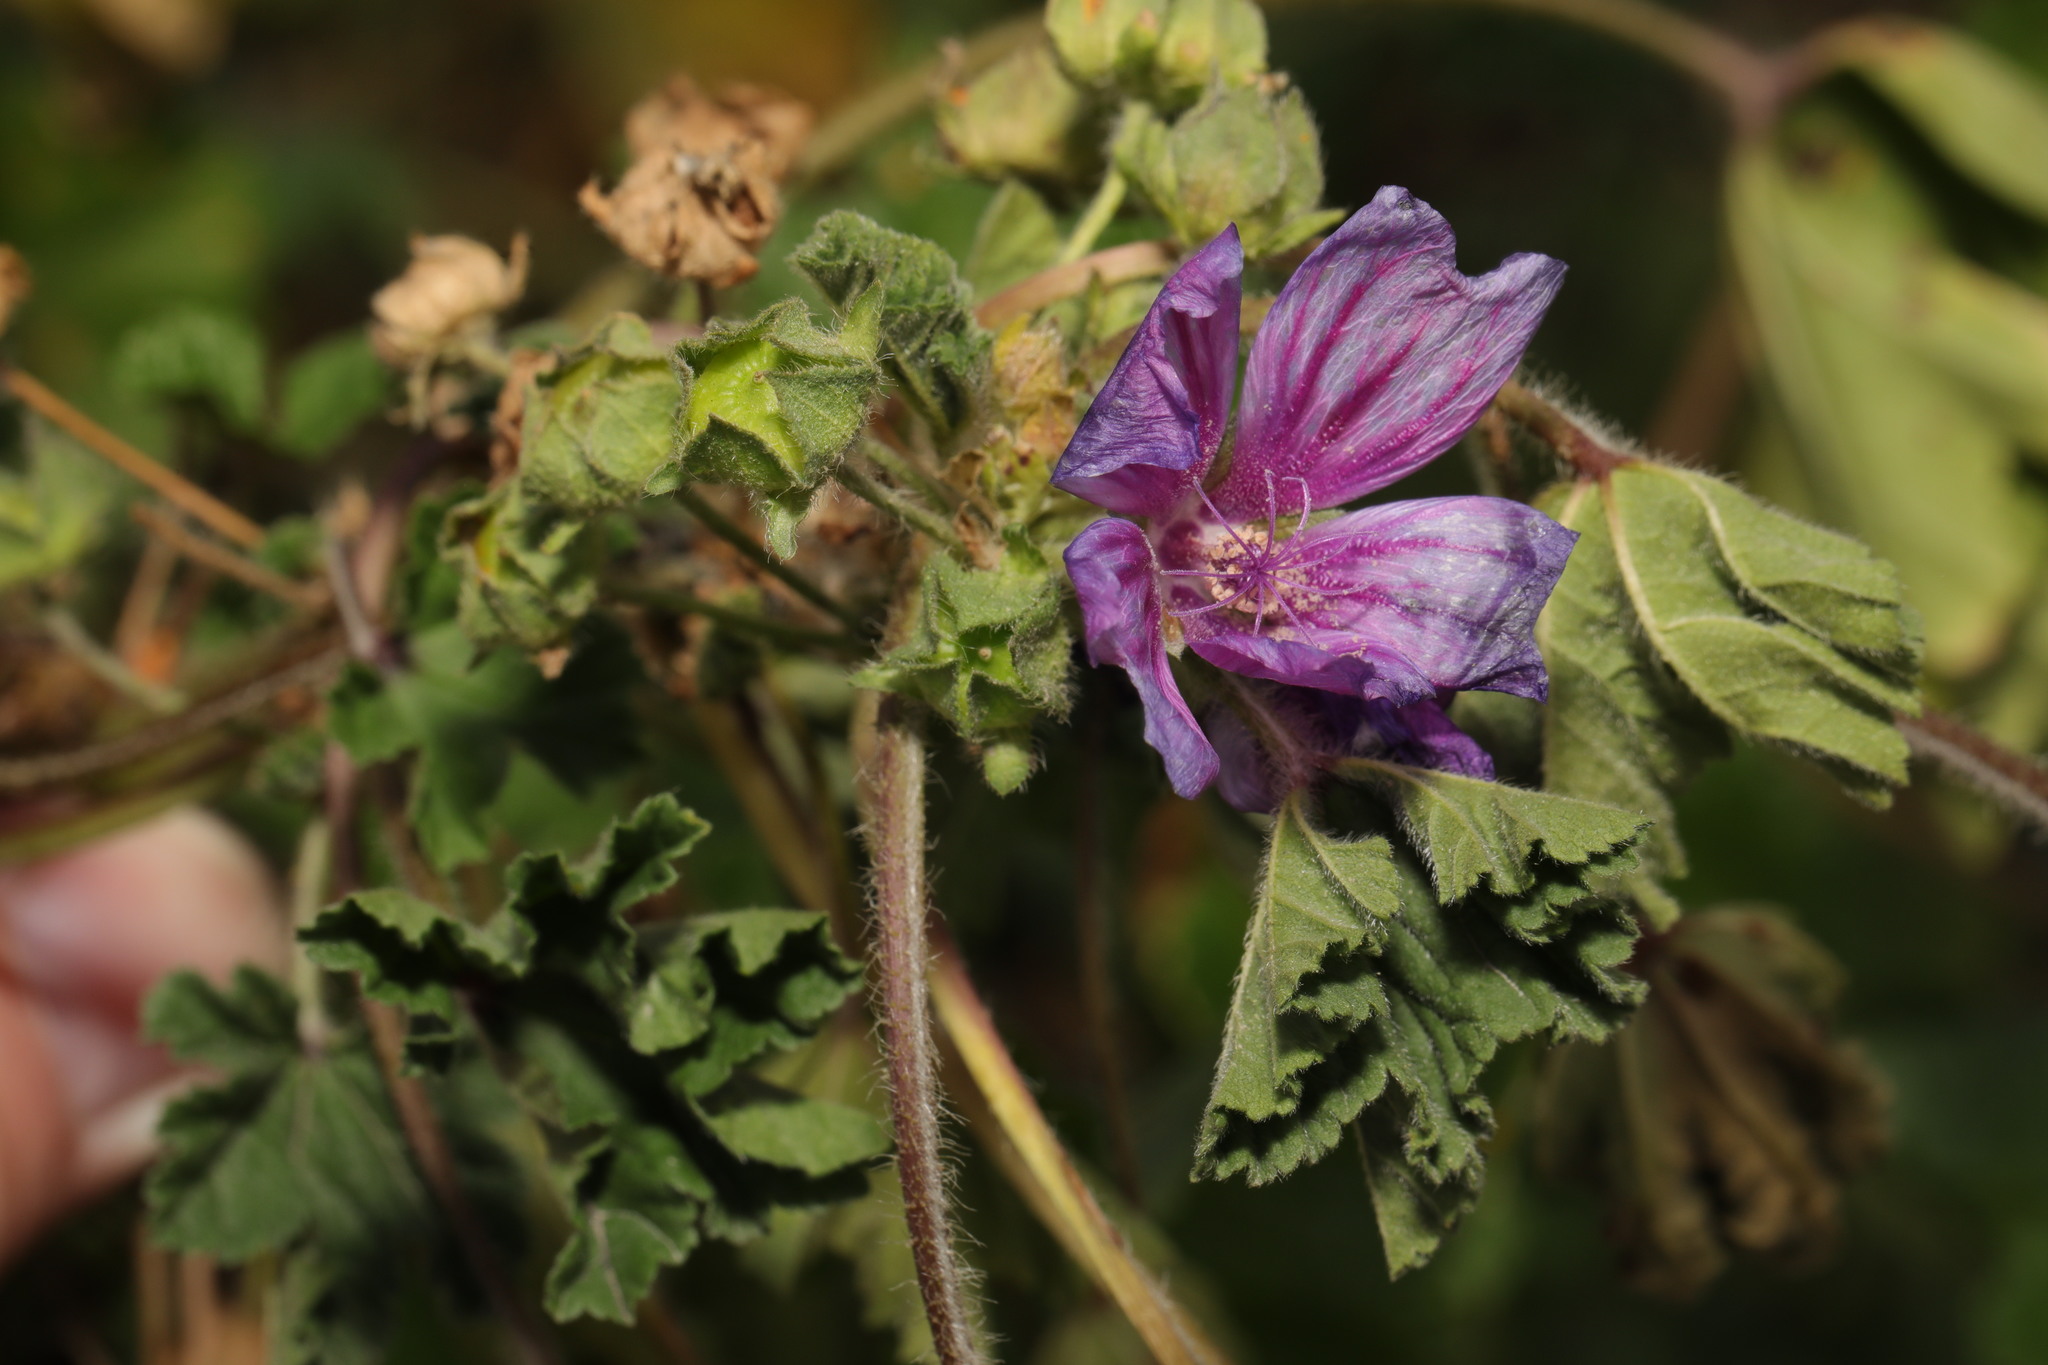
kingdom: Plantae
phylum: Tracheophyta
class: Magnoliopsida
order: Malvales
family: Malvaceae
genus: Malva
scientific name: Malva sylvestris
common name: Common mallow
